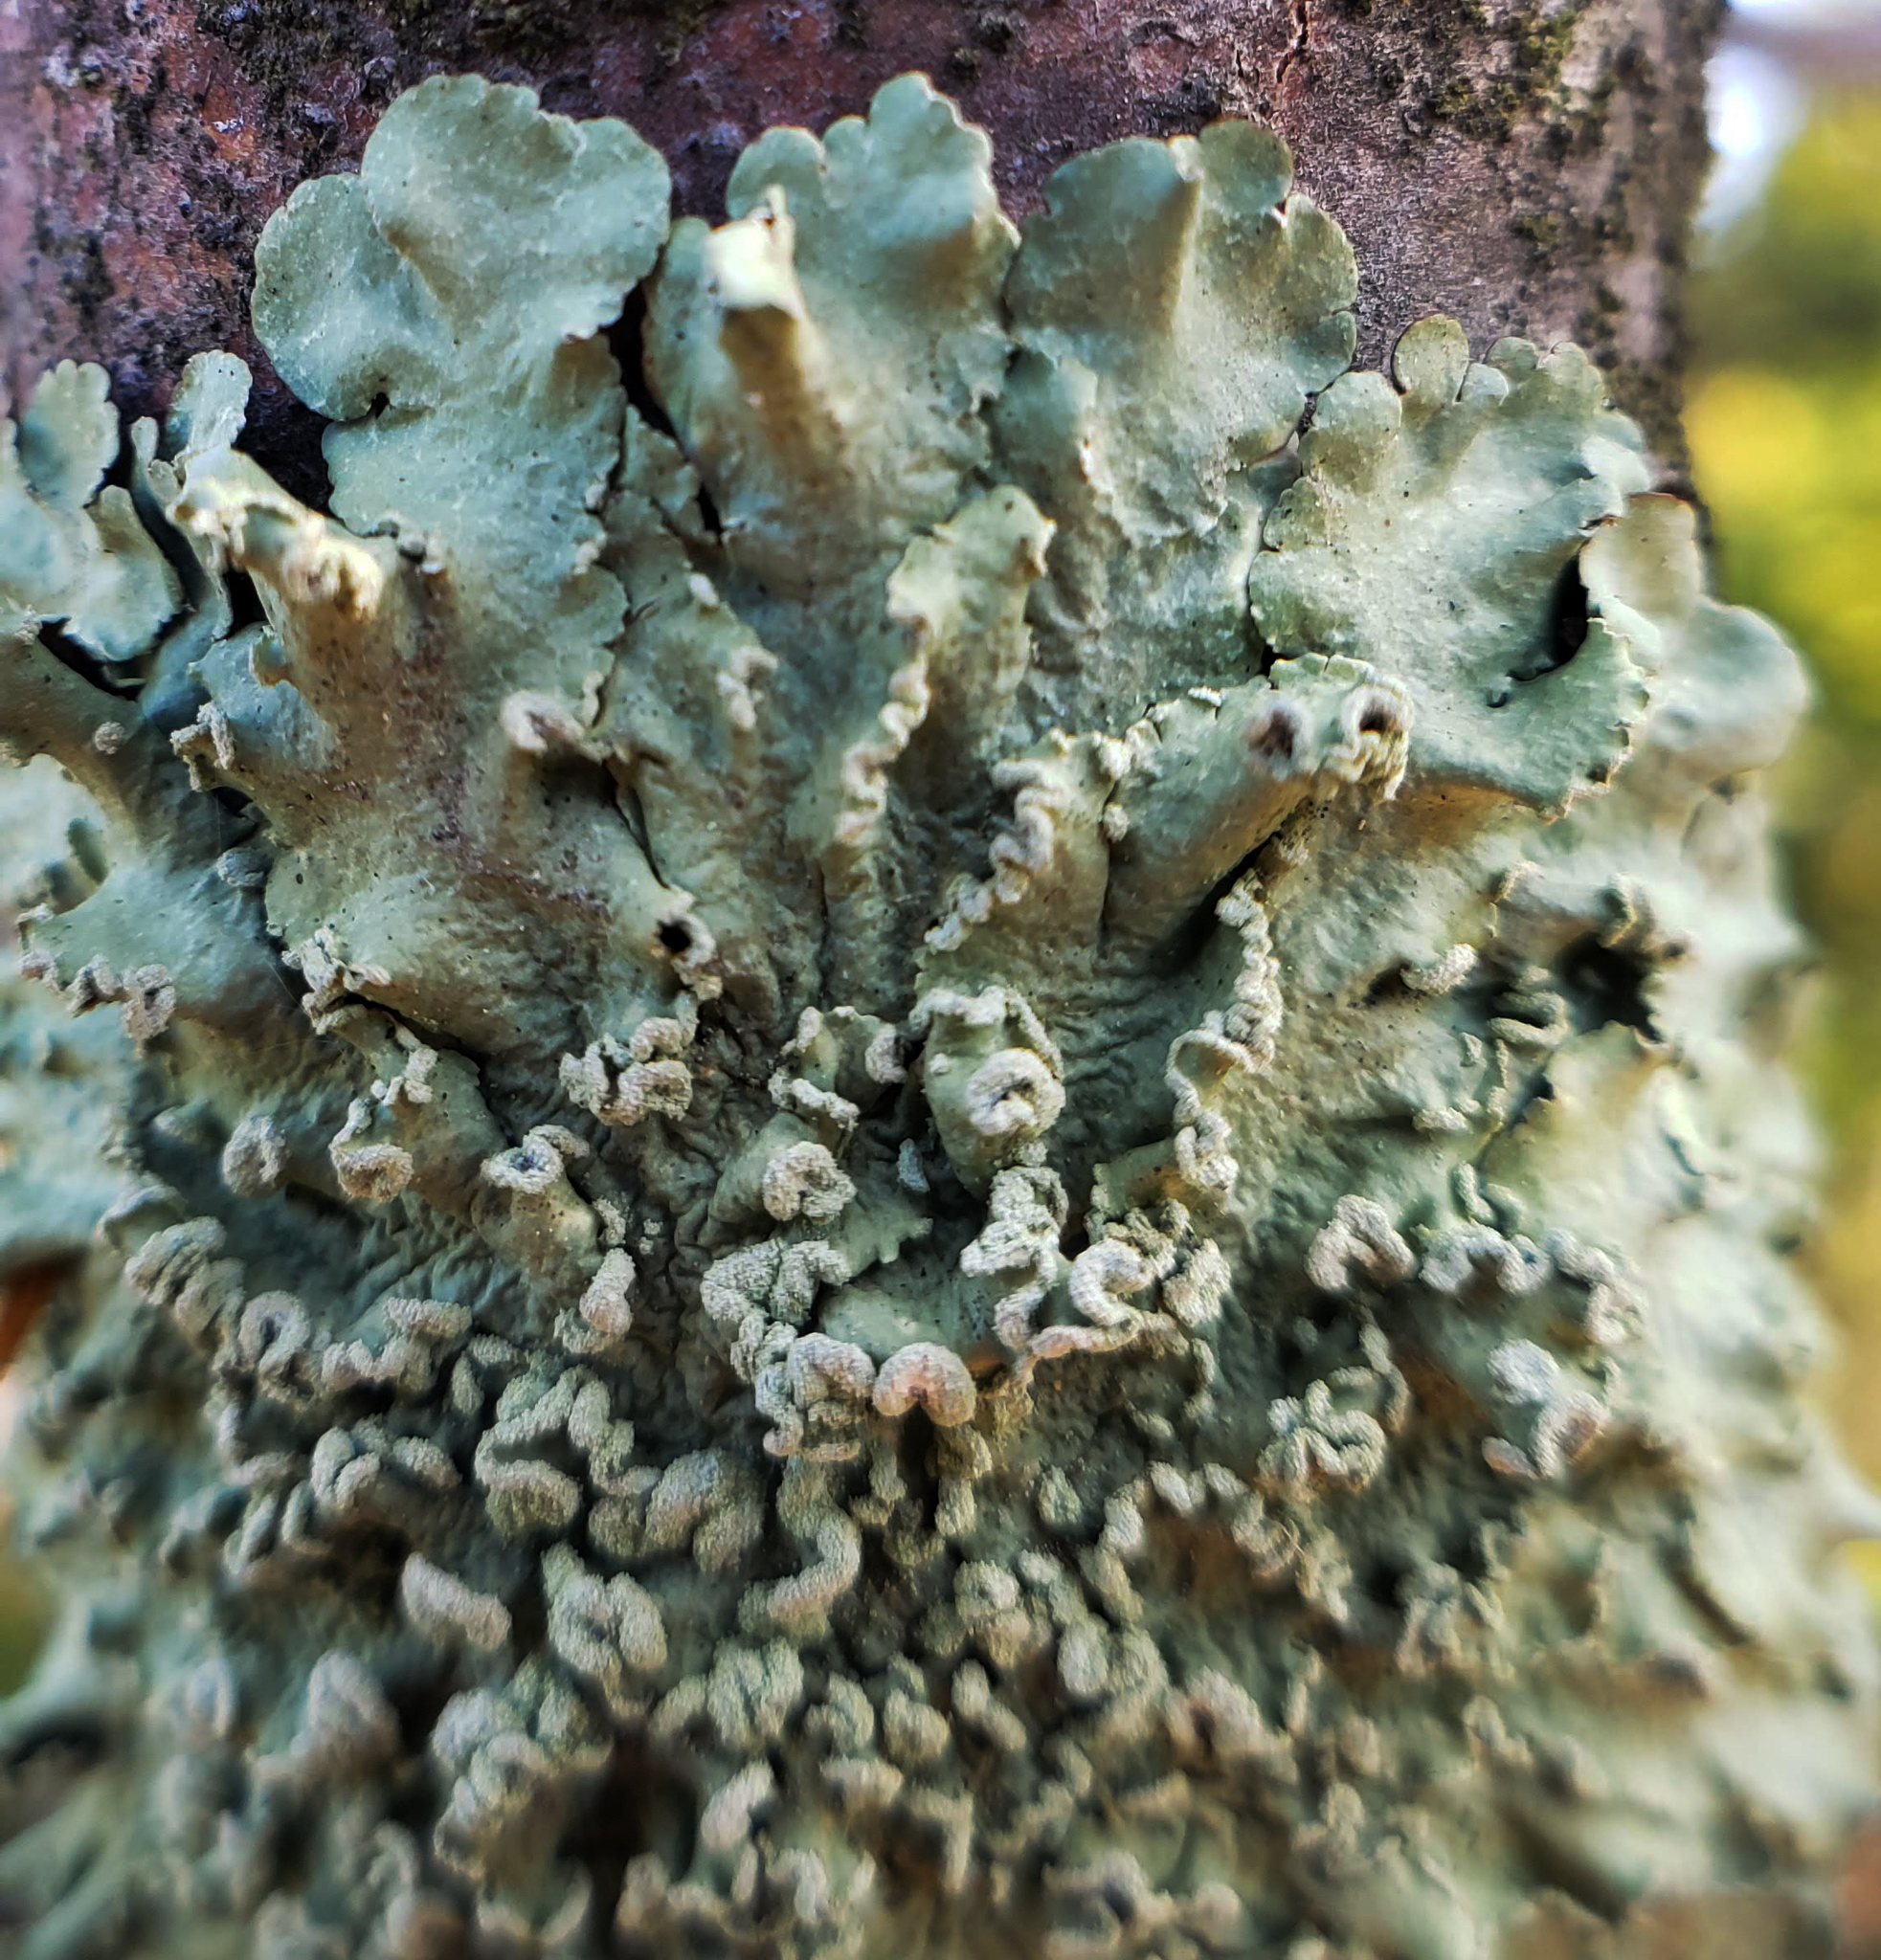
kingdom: Fungi
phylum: Ascomycota
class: Lecanoromycetes
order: Lecanorales
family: Parmeliaceae
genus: Flavopunctelia
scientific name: Flavopunctelia soredica
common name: Powder-edged speckled greenshield
